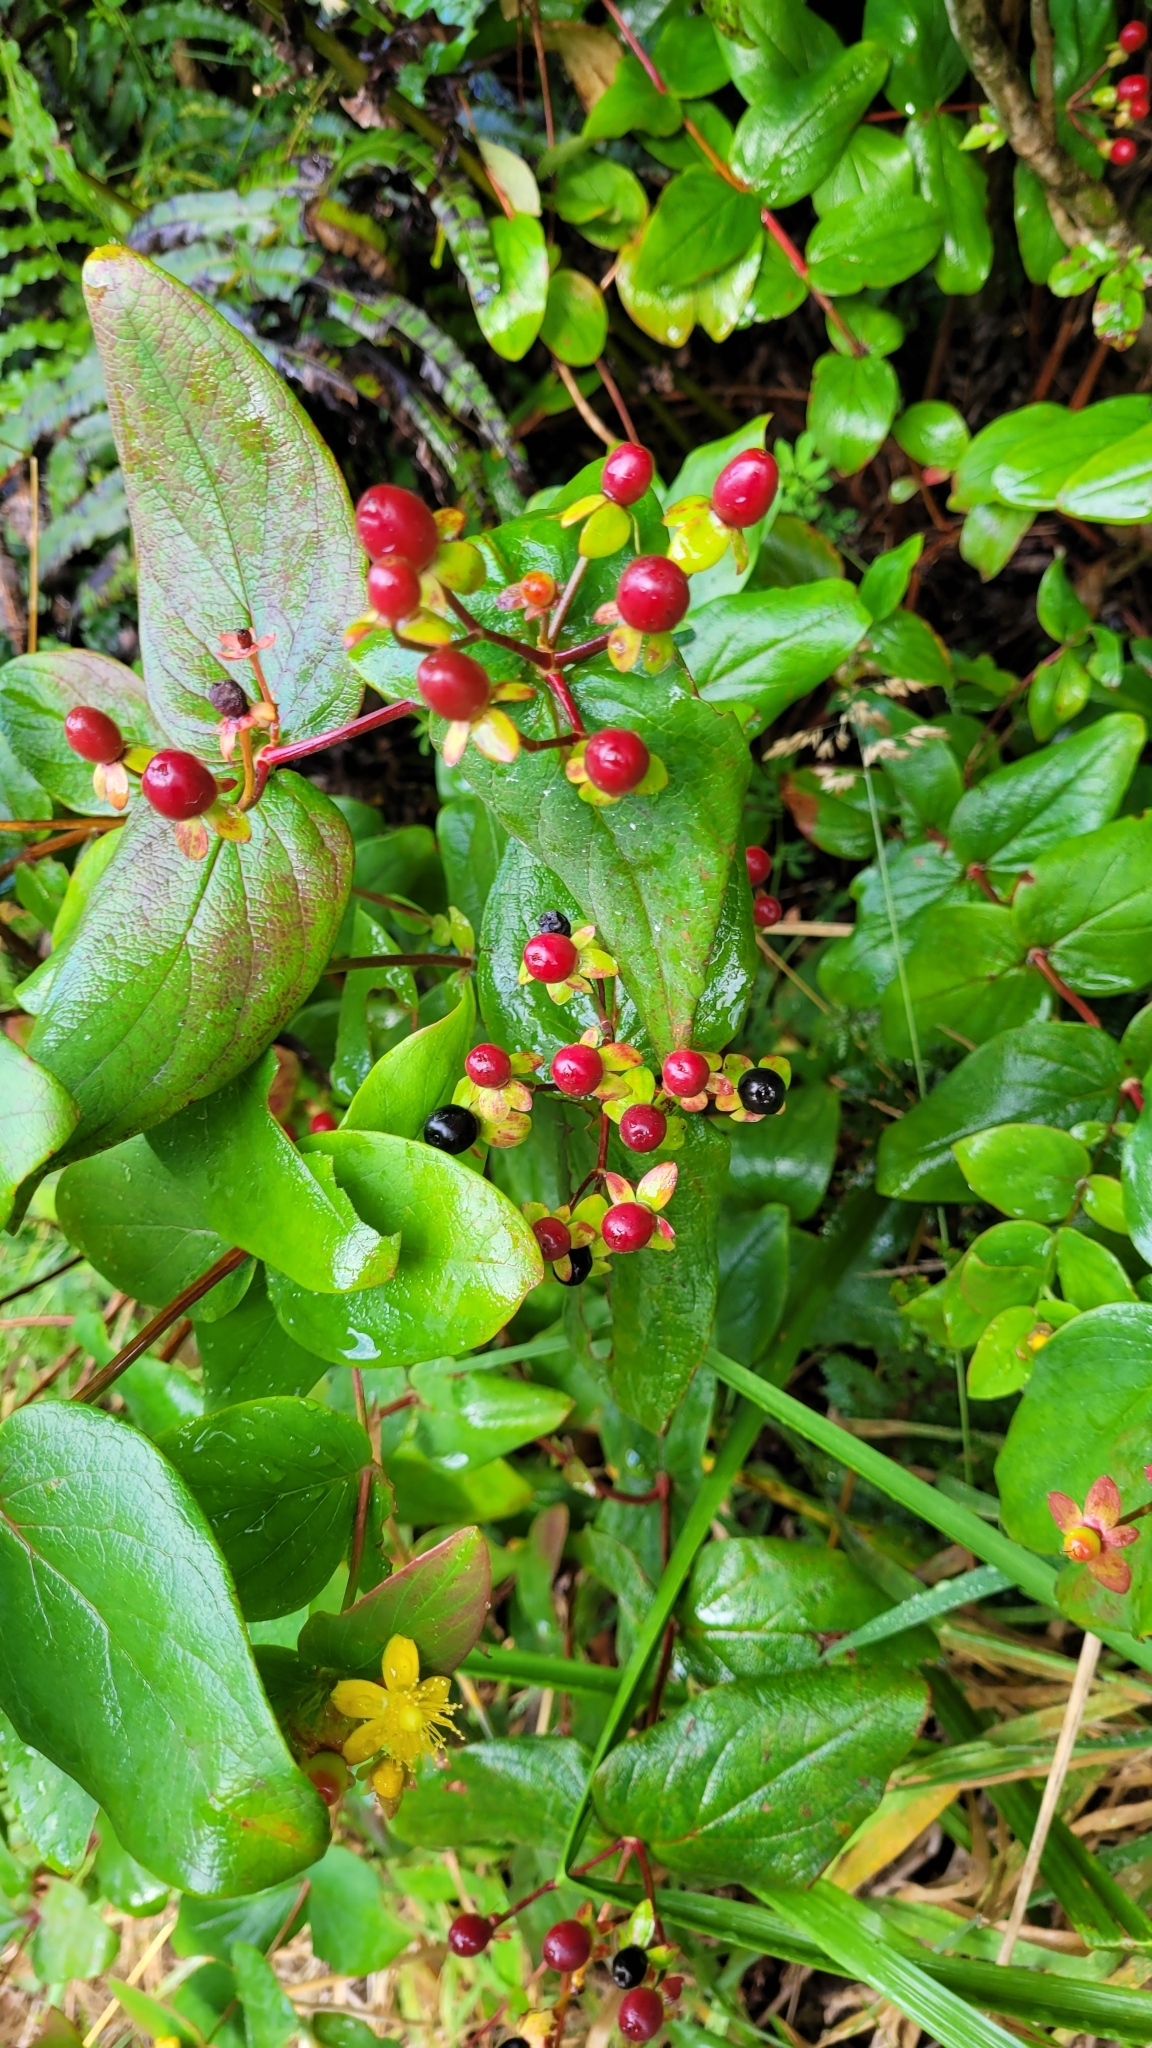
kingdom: Plantae
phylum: Tracheophyta
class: Magnoliopsida
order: Malpighiales
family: Hypericaceae
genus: Hypericum
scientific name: Hypericum androsaemum
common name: Sweet-amber
